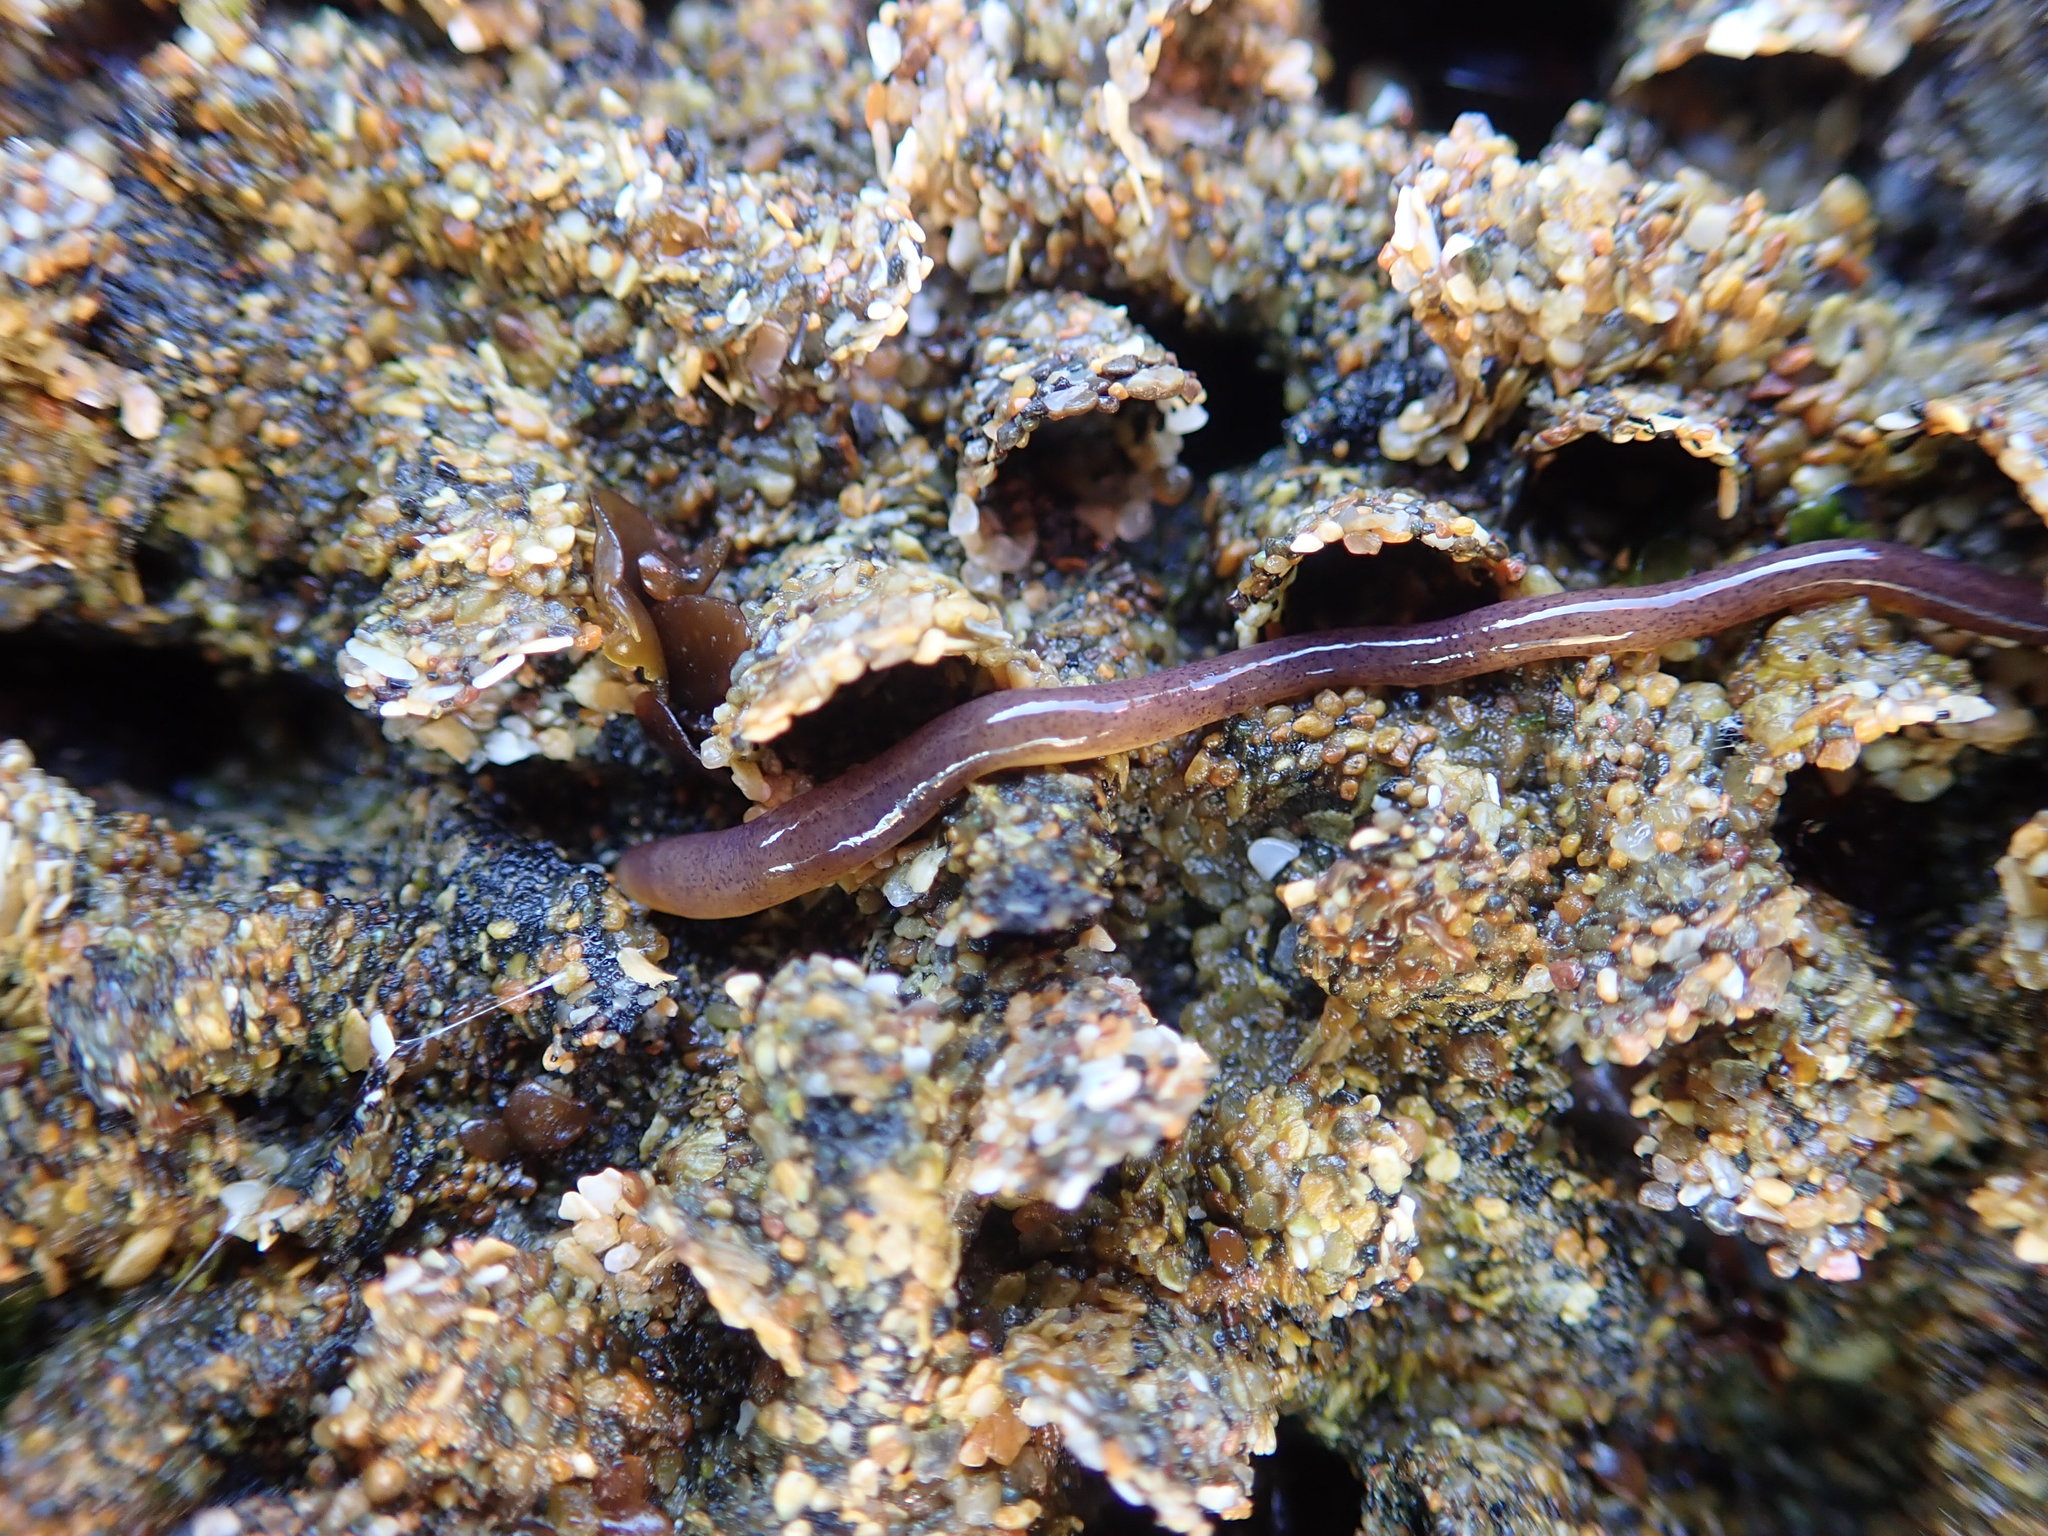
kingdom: Animalia
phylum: Nemertea
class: Hoplonemertea
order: Monostilifera
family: Neesiidae
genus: Paranemertes
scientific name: Paranemertes peregrina
